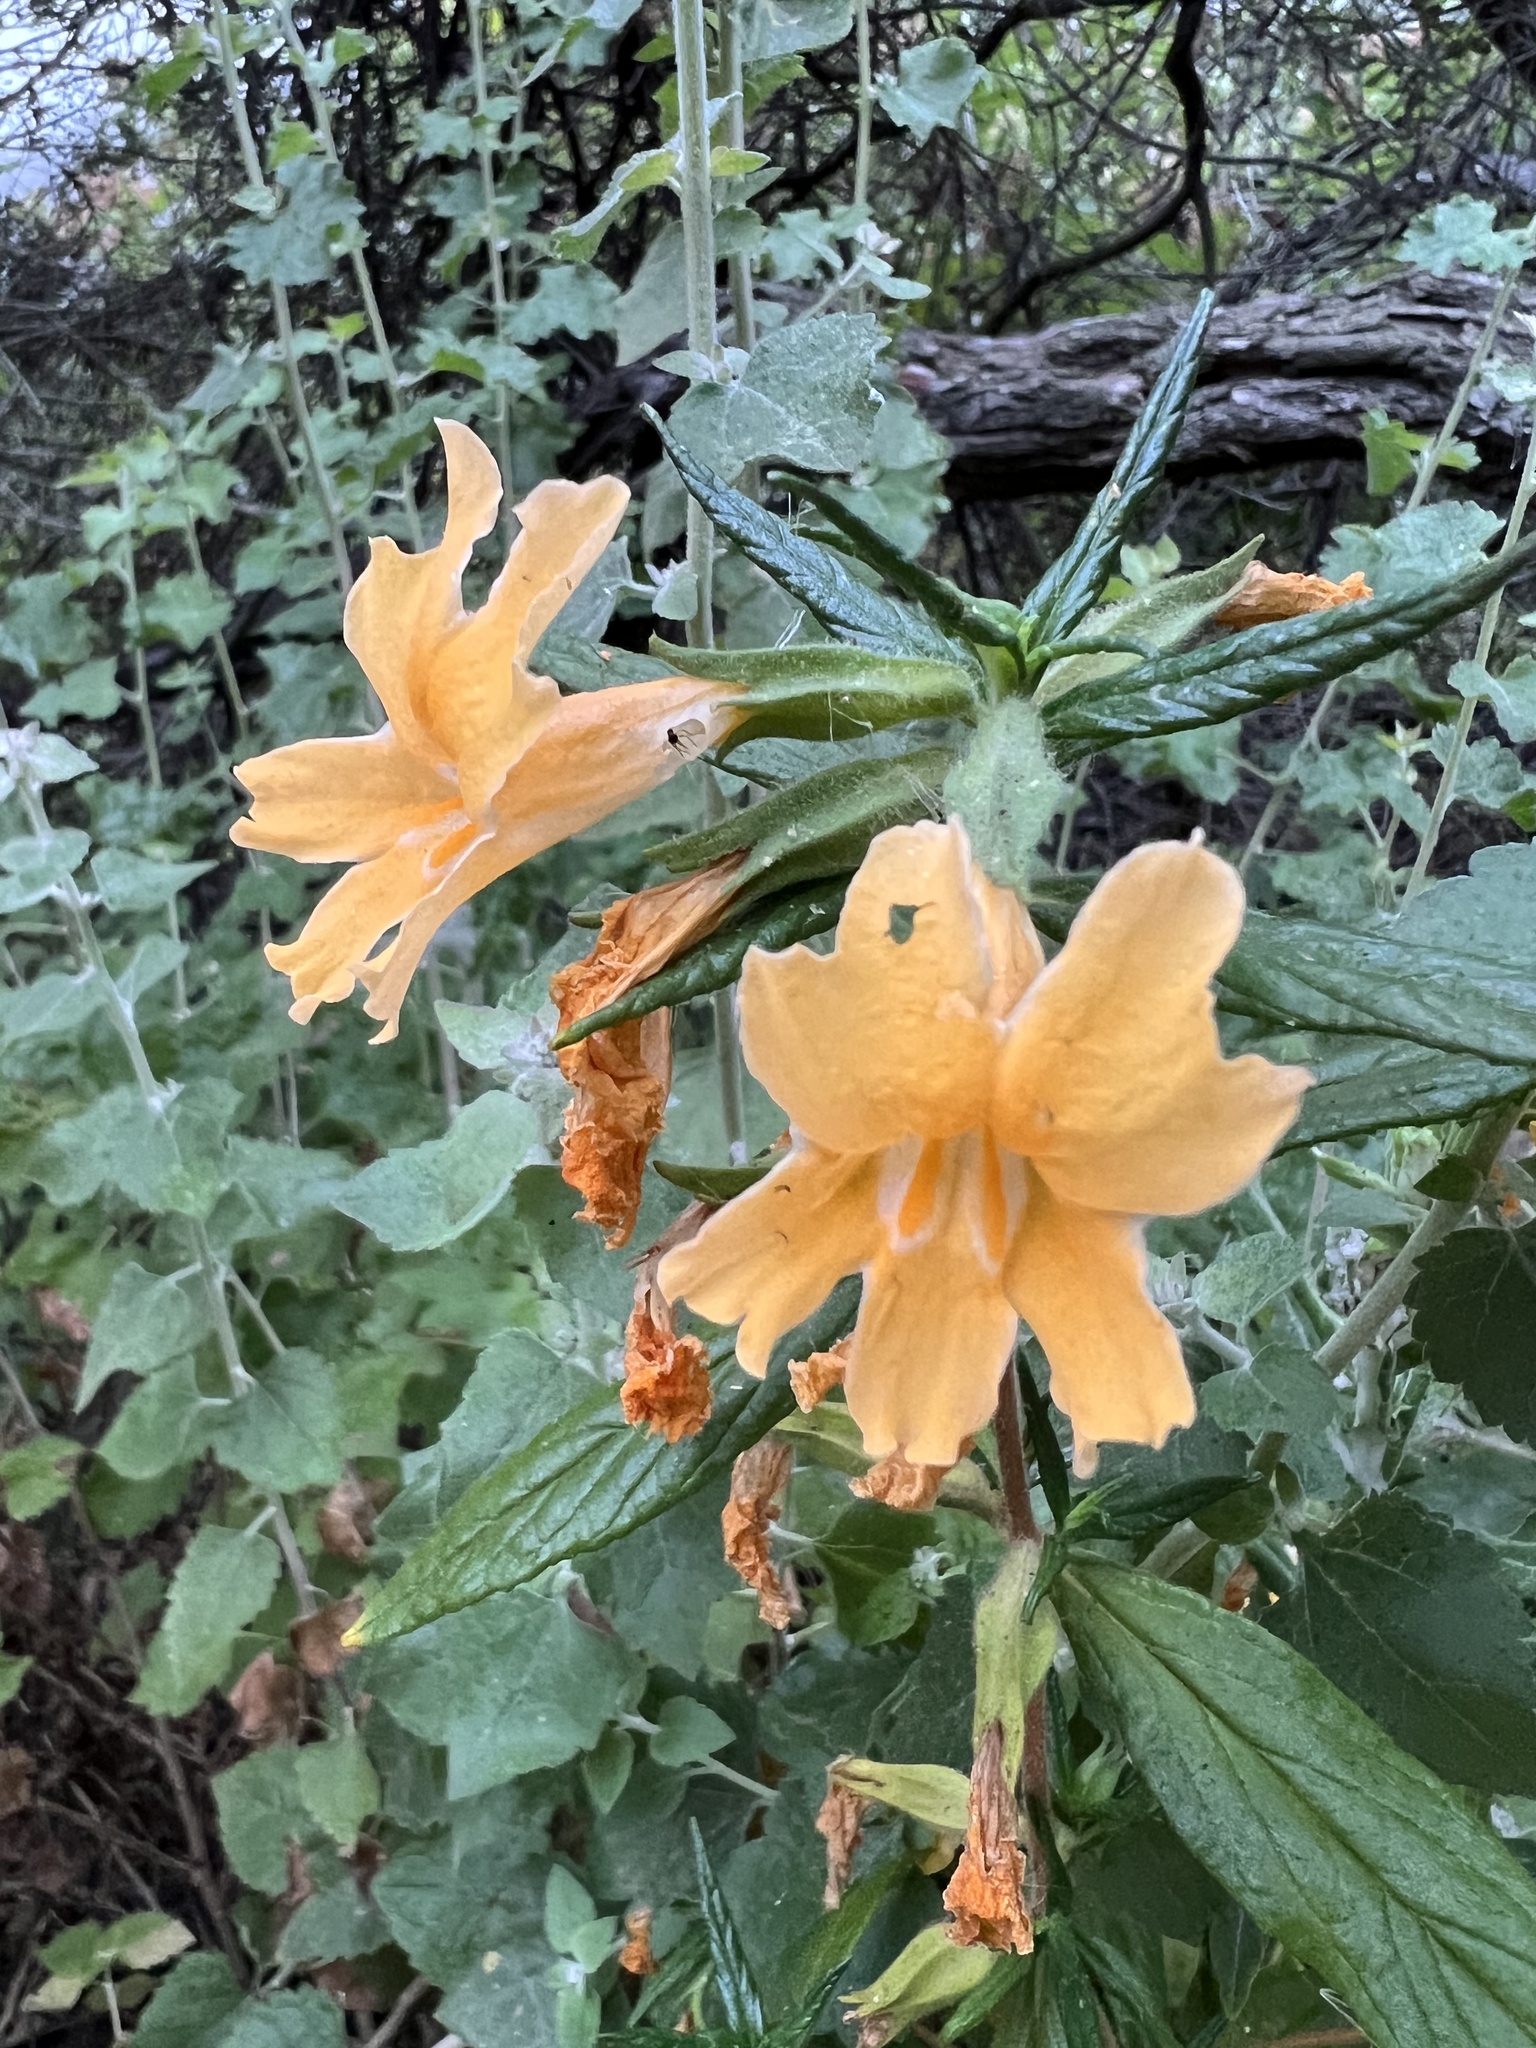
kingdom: Plantae
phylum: Tracheophyta
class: Magnoliopsida
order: Lamiales
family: Phrymaceae
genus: Diplacus
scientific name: Diplacus longiflorus
